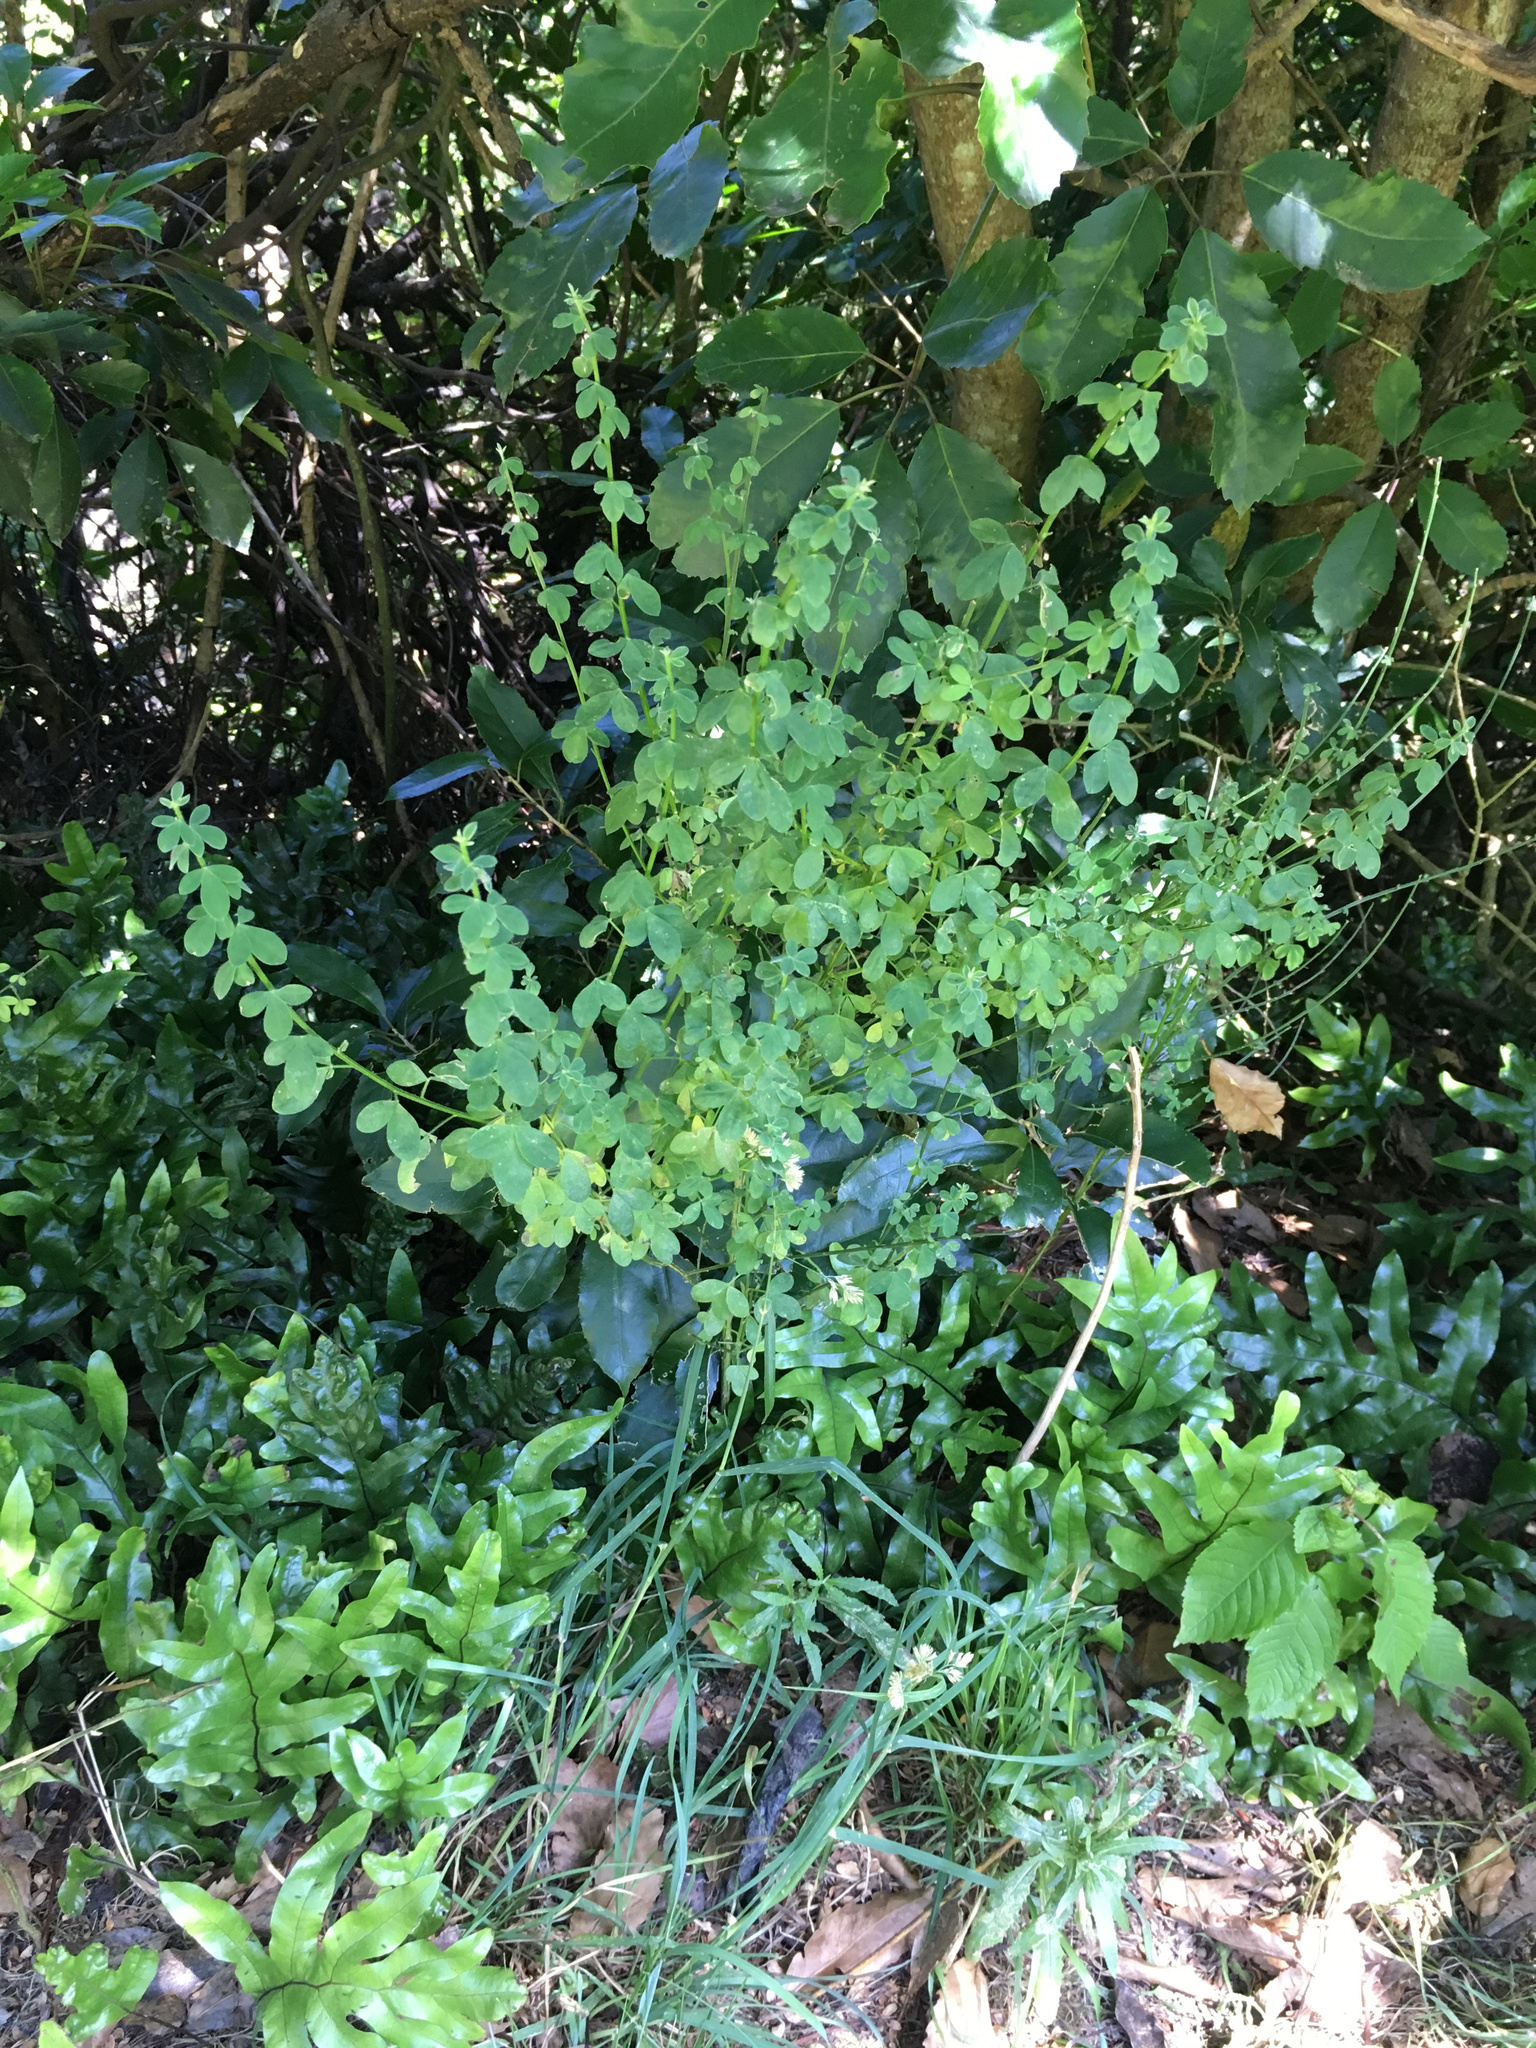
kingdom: Plantae
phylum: Tracheophyta
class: Magnoliopsida
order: Fabales
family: Fabaceae
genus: Cytisus
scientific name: Cytisus scoparius
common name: Scotch broom
